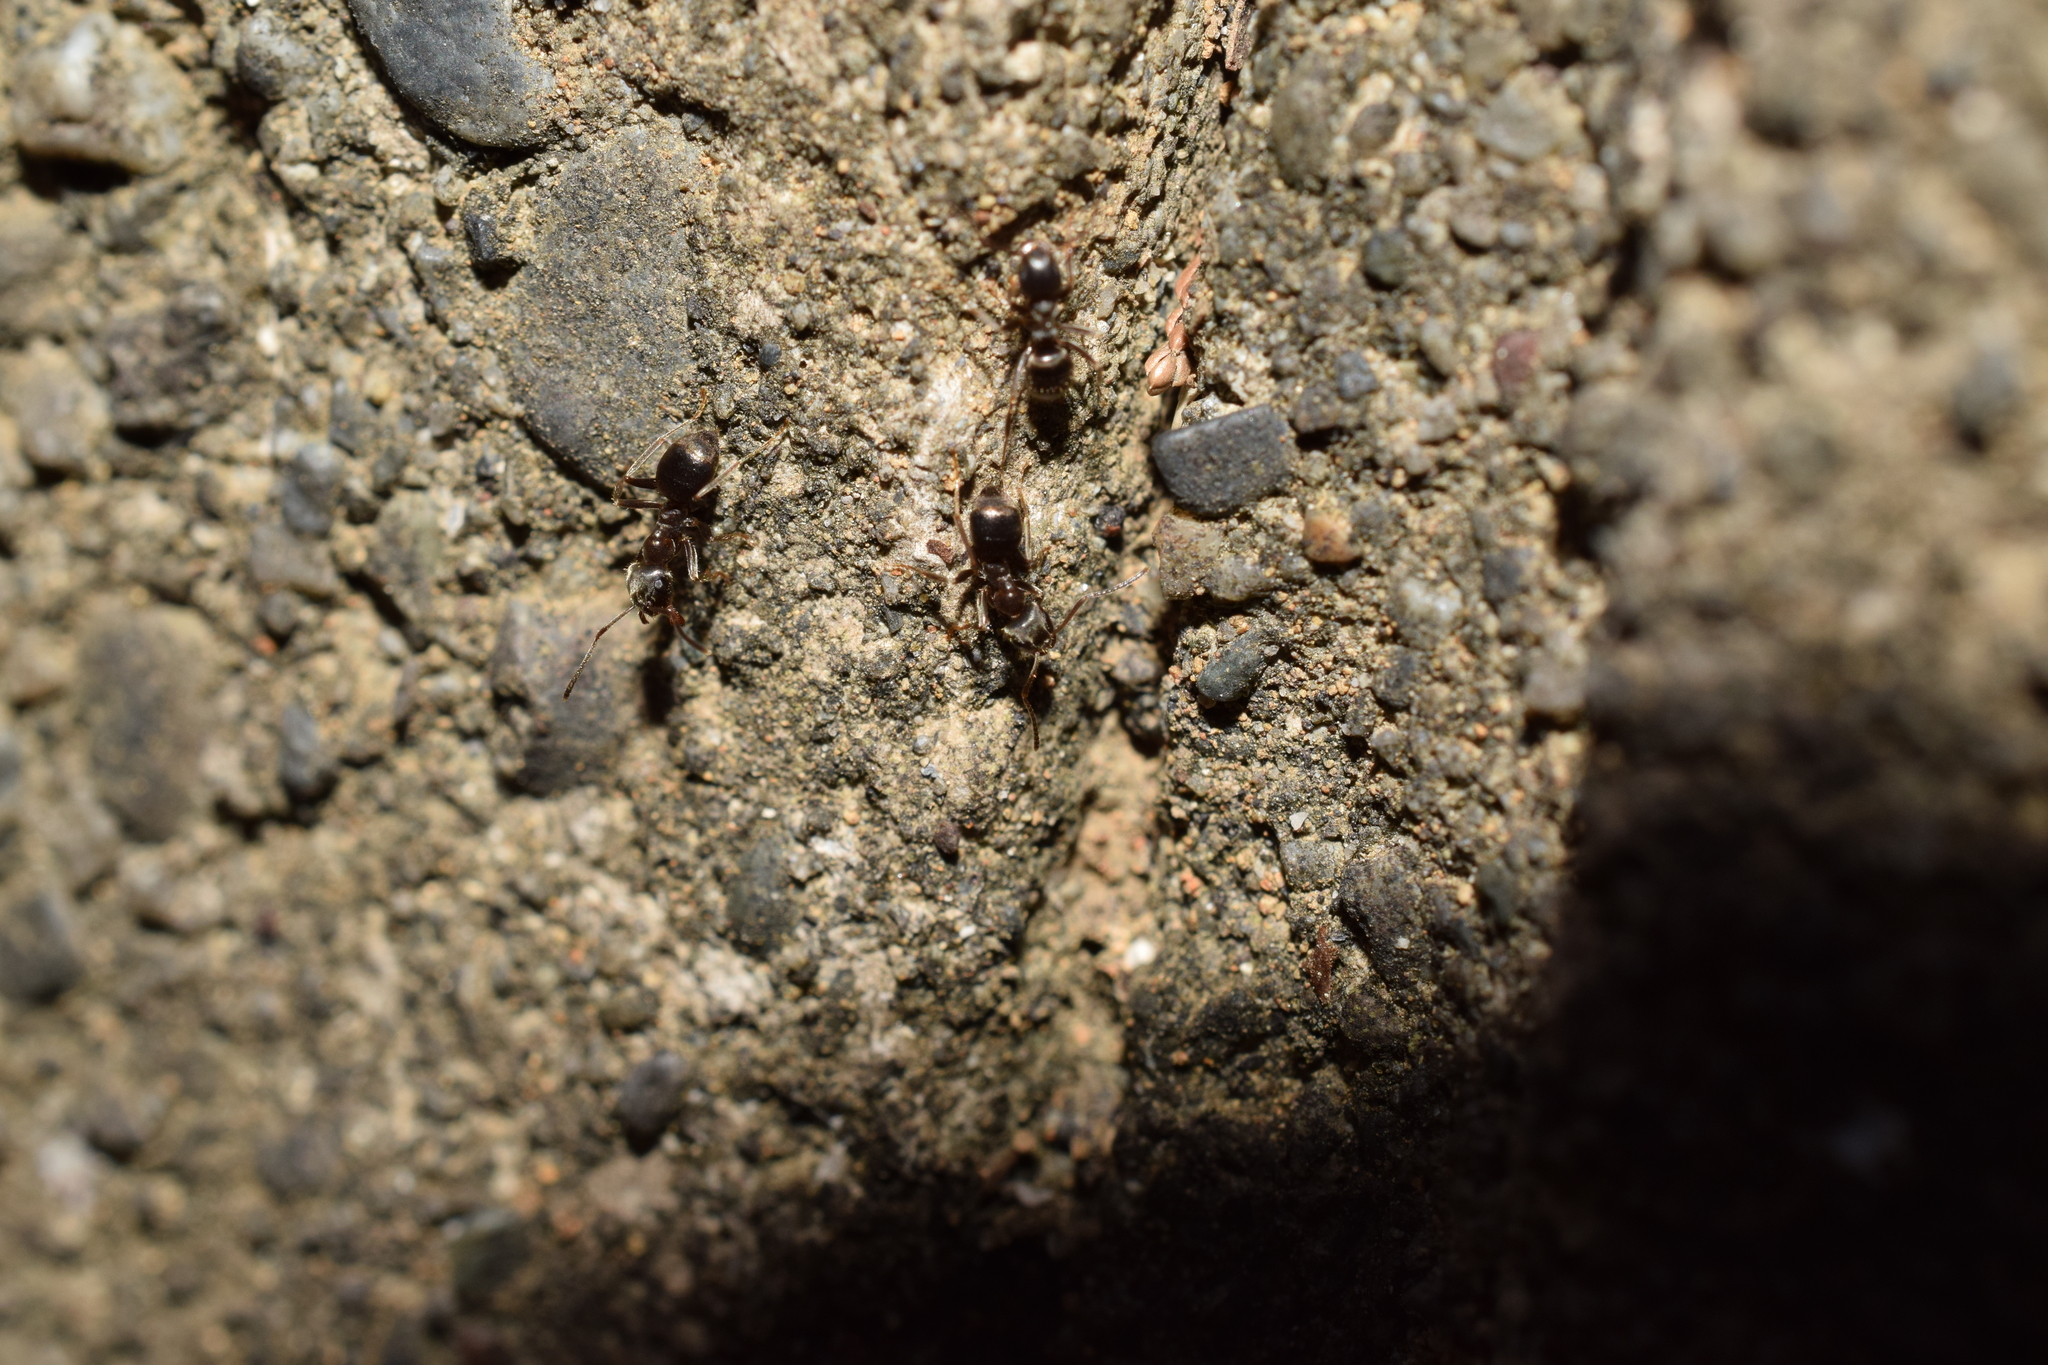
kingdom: Animalia
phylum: Arthropoda
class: Insecta
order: Hymenoptera
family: Formicidae
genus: Lasius
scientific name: Lasius japonicus
